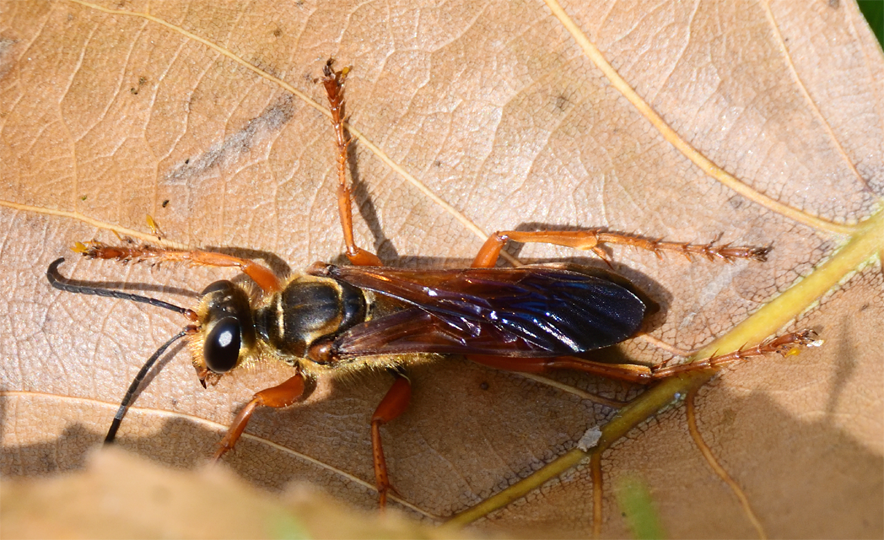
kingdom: Animalia
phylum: Arthropoda
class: Insecta
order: Hymenoptera
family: Sphecidae
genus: Sphex
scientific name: Sphex ichneumoneus
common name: Great golden digger wasp
